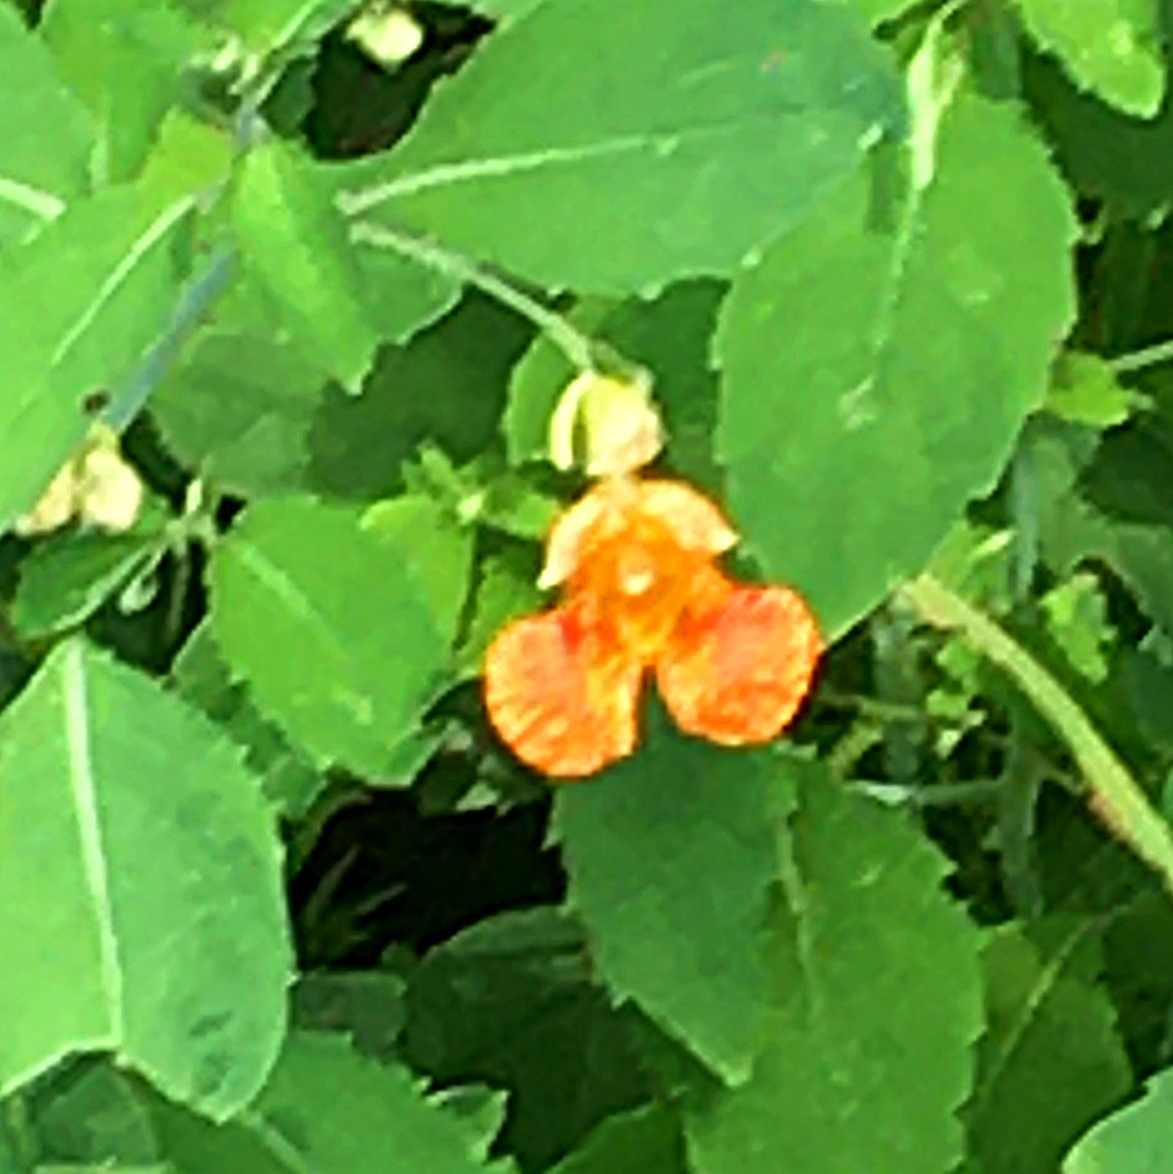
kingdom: Plantae
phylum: Tracheophyta
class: Magnoliopsida
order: Ericales
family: Balsaminaceae
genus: Impatiens
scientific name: Impatiens capensis
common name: Orange balsam
